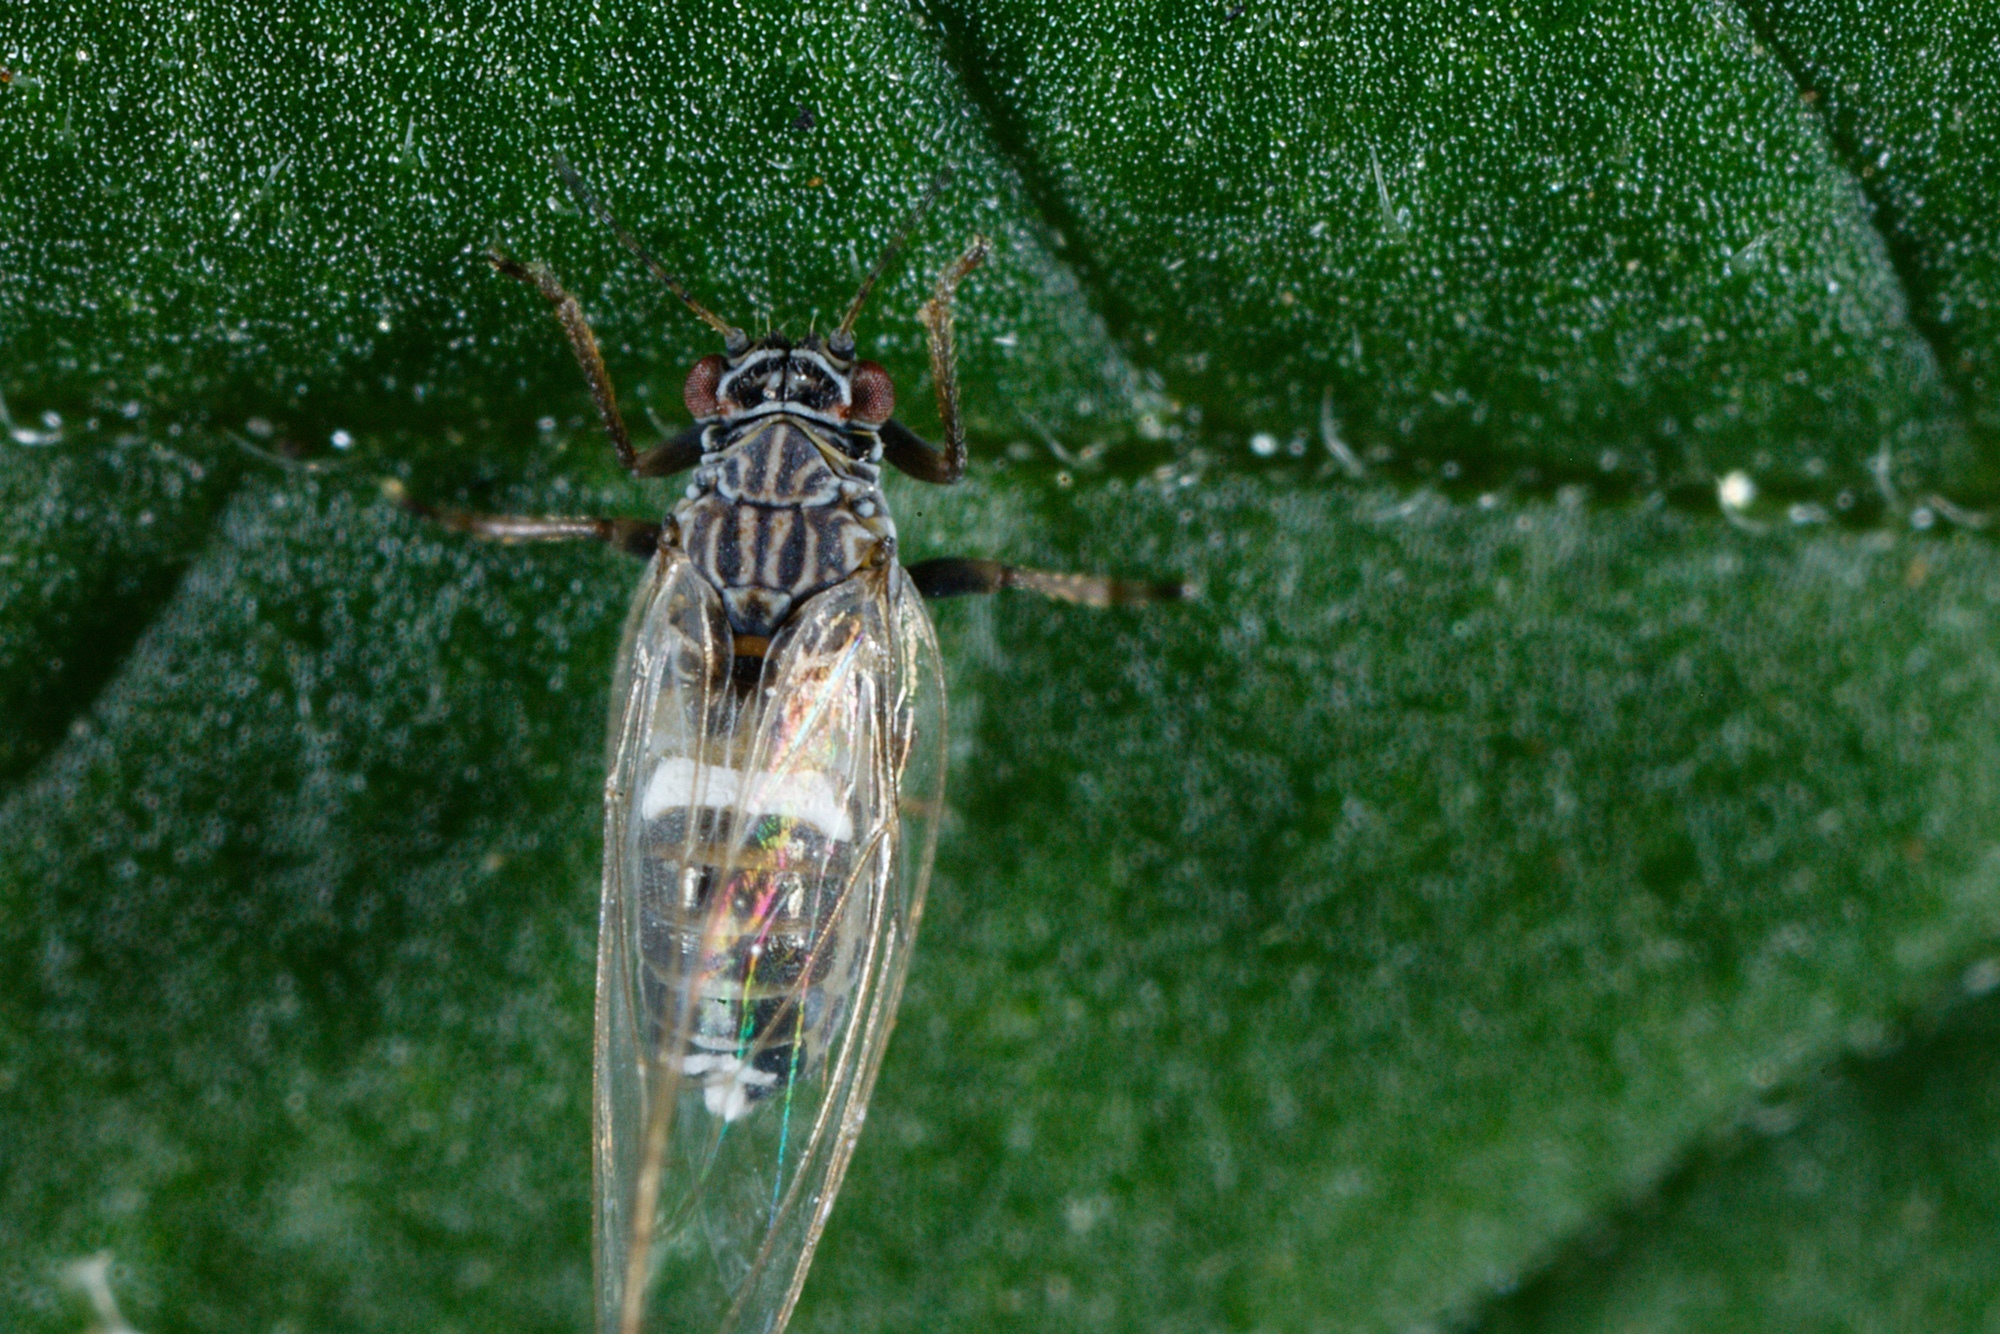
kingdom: Animalia
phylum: Arthropoda
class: Insecta
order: Hemiptera
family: Triozidae
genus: Bactericera
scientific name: Bactericera cockerelli
